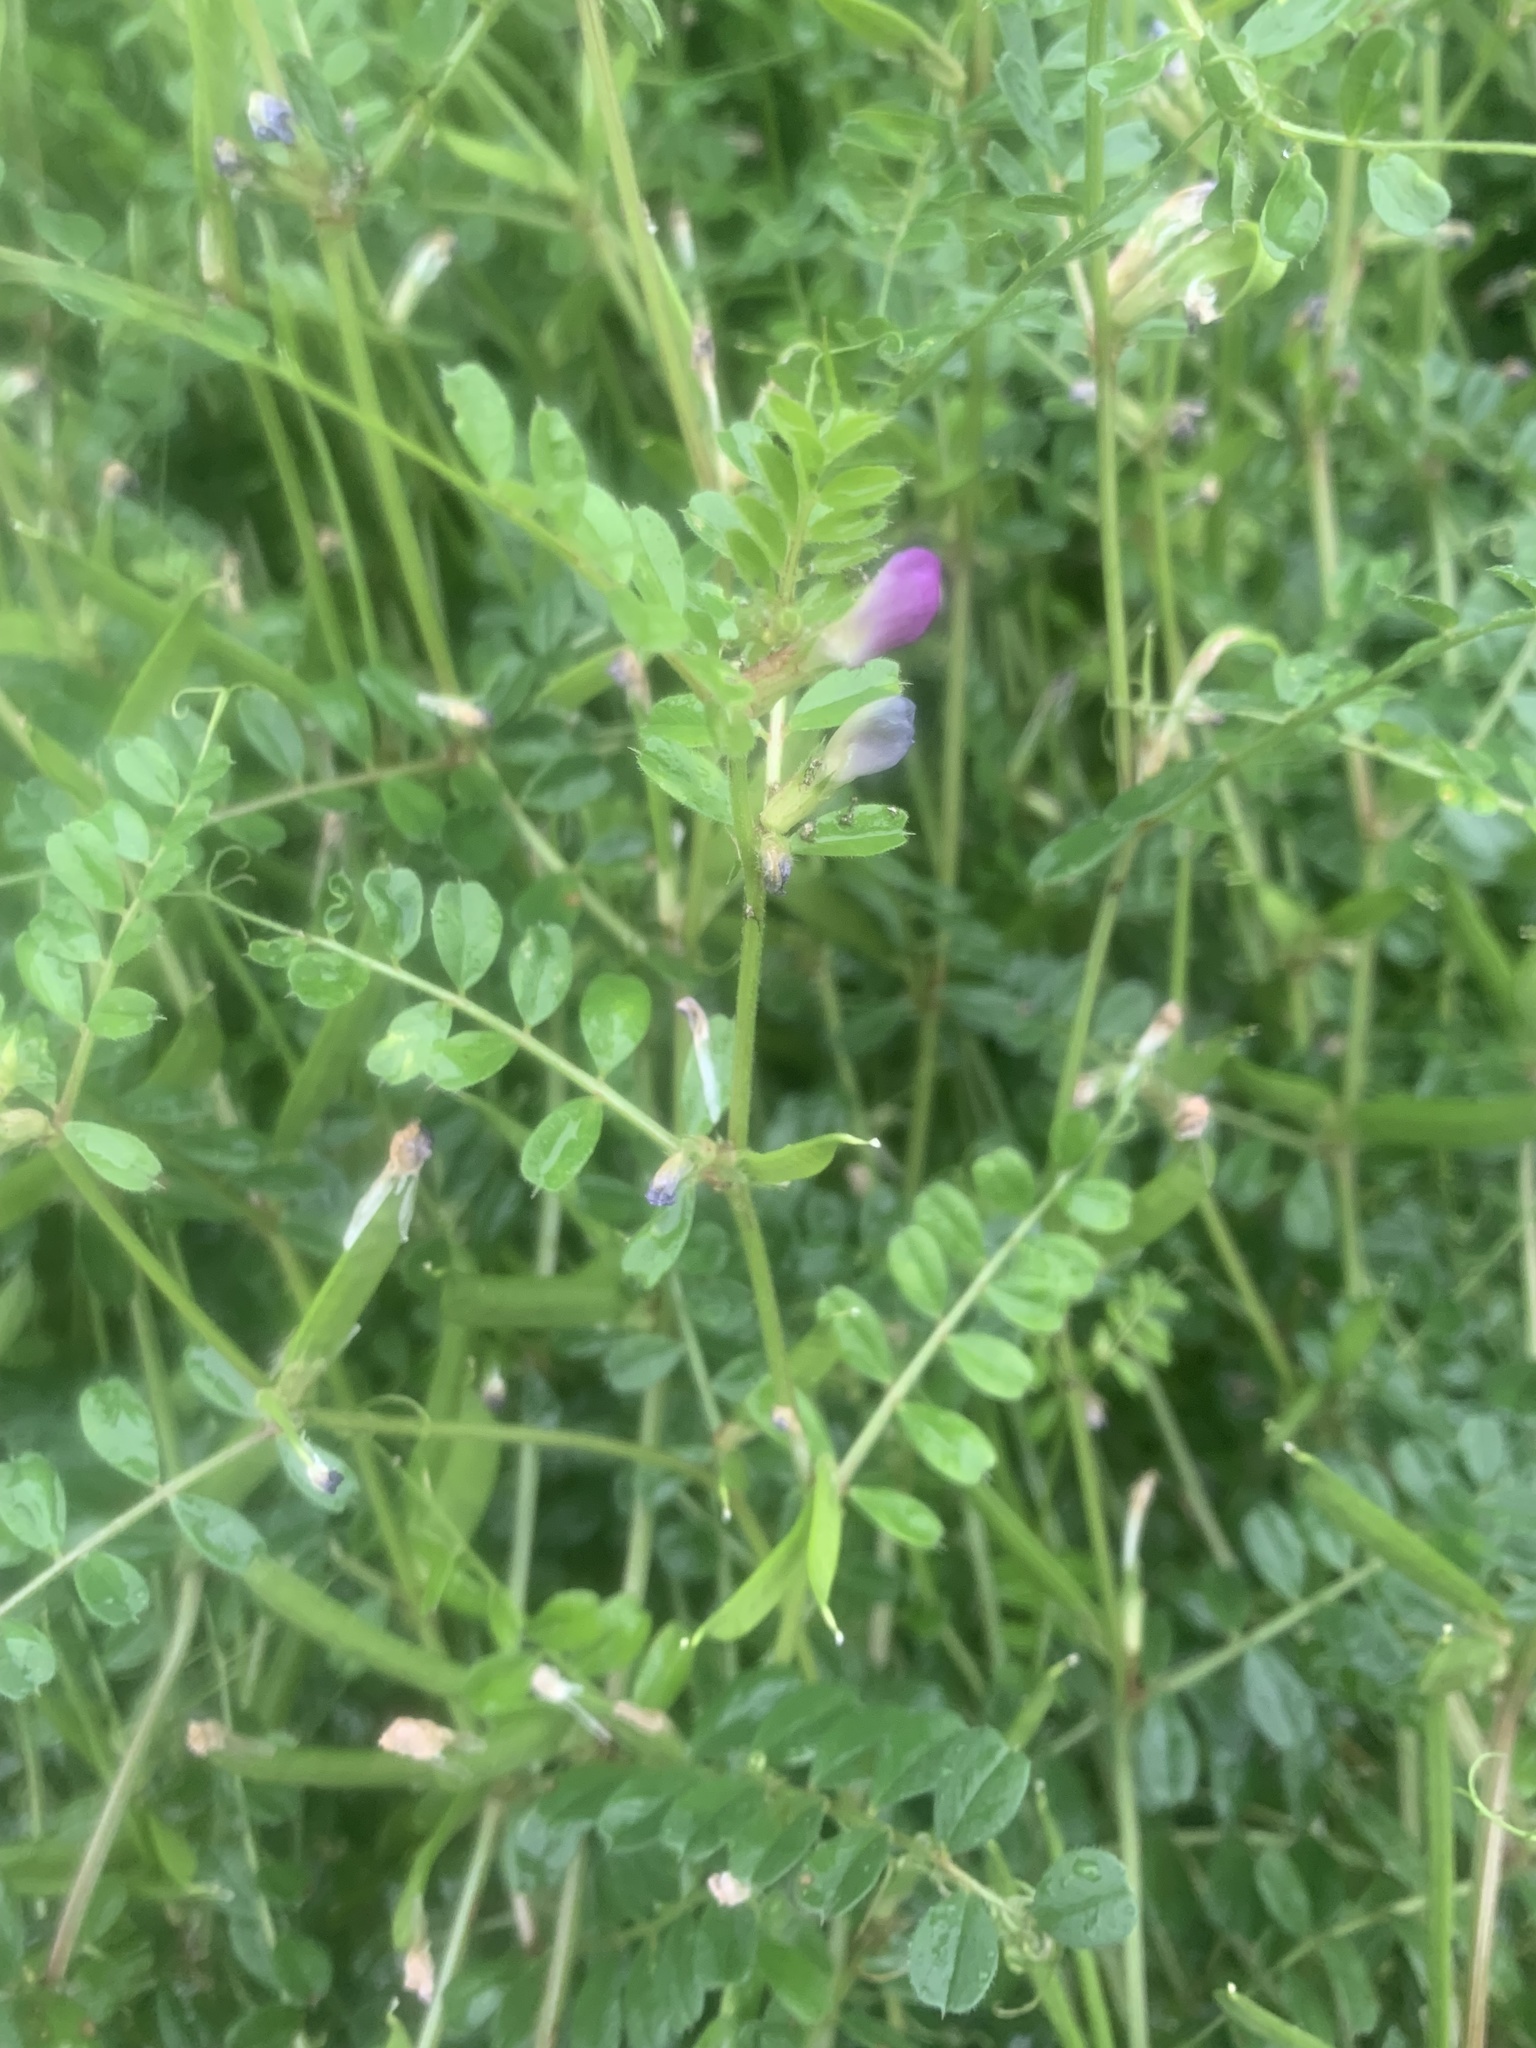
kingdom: Plantae
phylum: Tracheophyta
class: Magnoliopsida
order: Fabales
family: Fabaceae
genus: Vicia
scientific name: Vicia sativa
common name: Garden vetch
